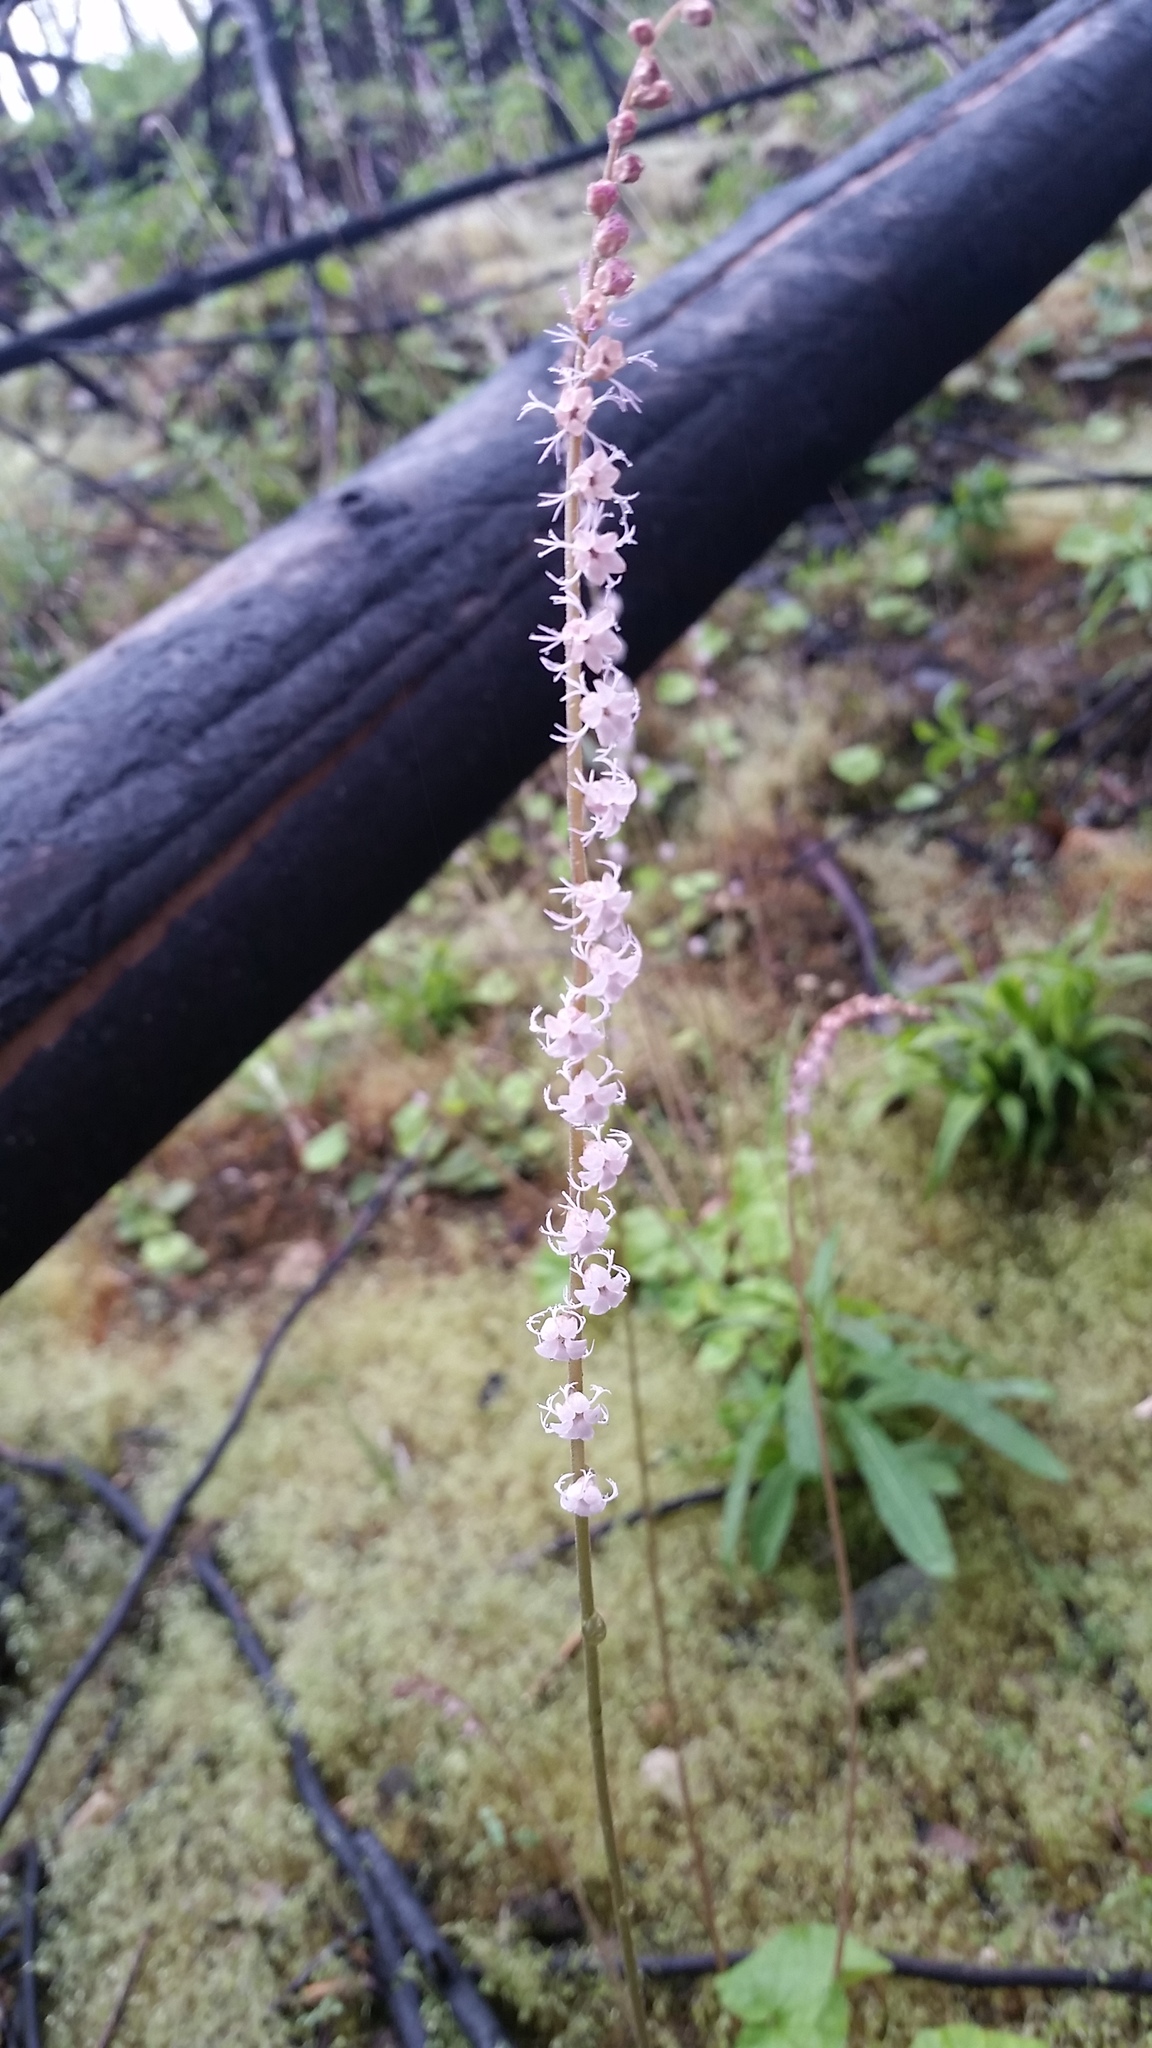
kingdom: Plantae
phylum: Tracheophyta
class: Magnoliopsida
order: Saxifragales
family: Saxifragaceae
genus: Ozomelis
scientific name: Ozomelis stauropetala
